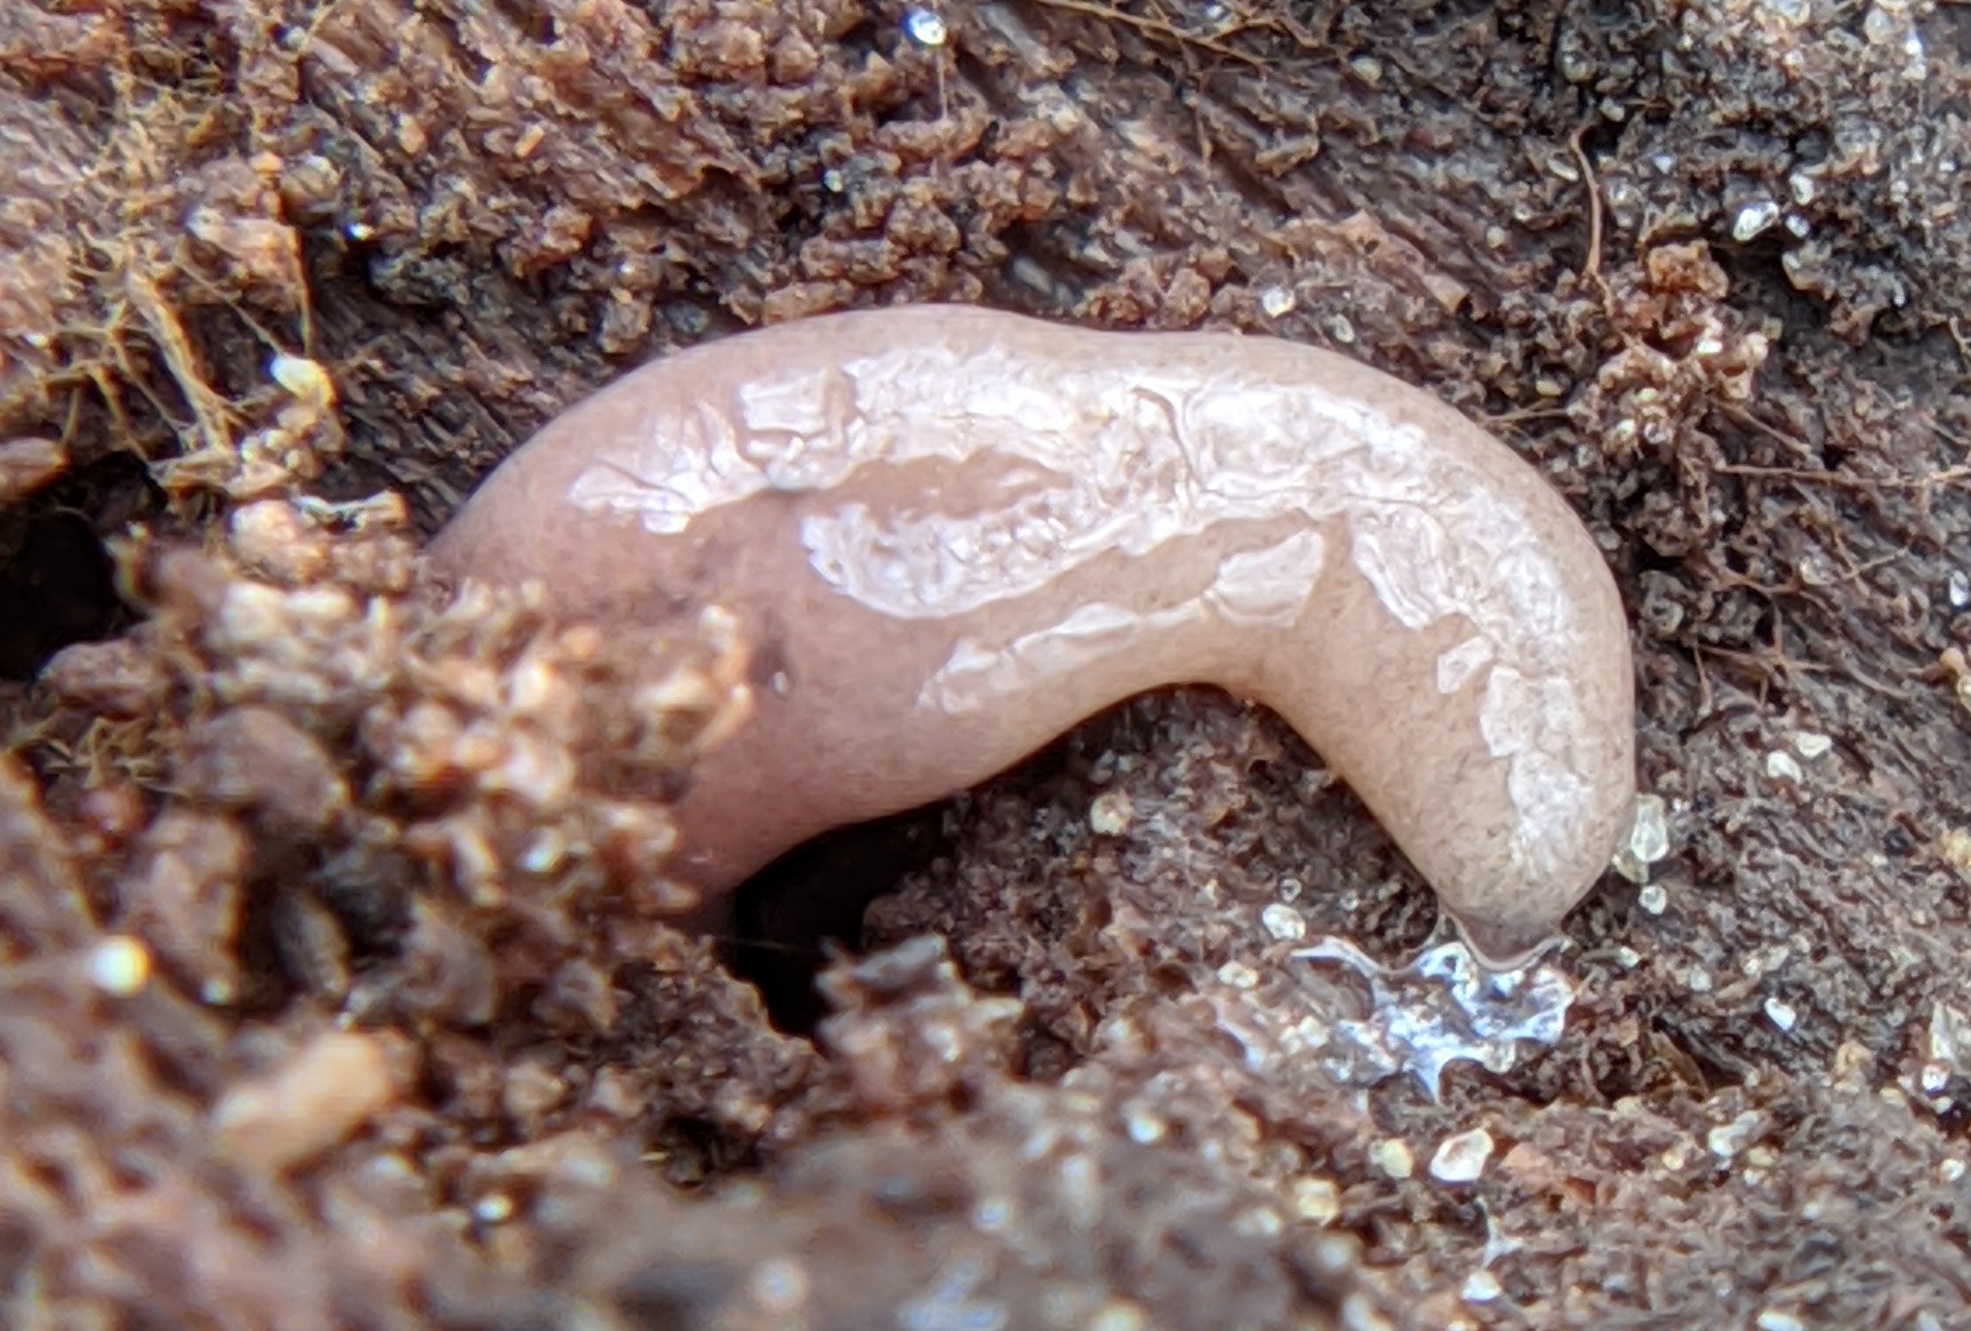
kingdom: Animalia
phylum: Platyhelminthes
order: Tricladida
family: Geoplanidae
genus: Microplana
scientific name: Microplana terrestris
